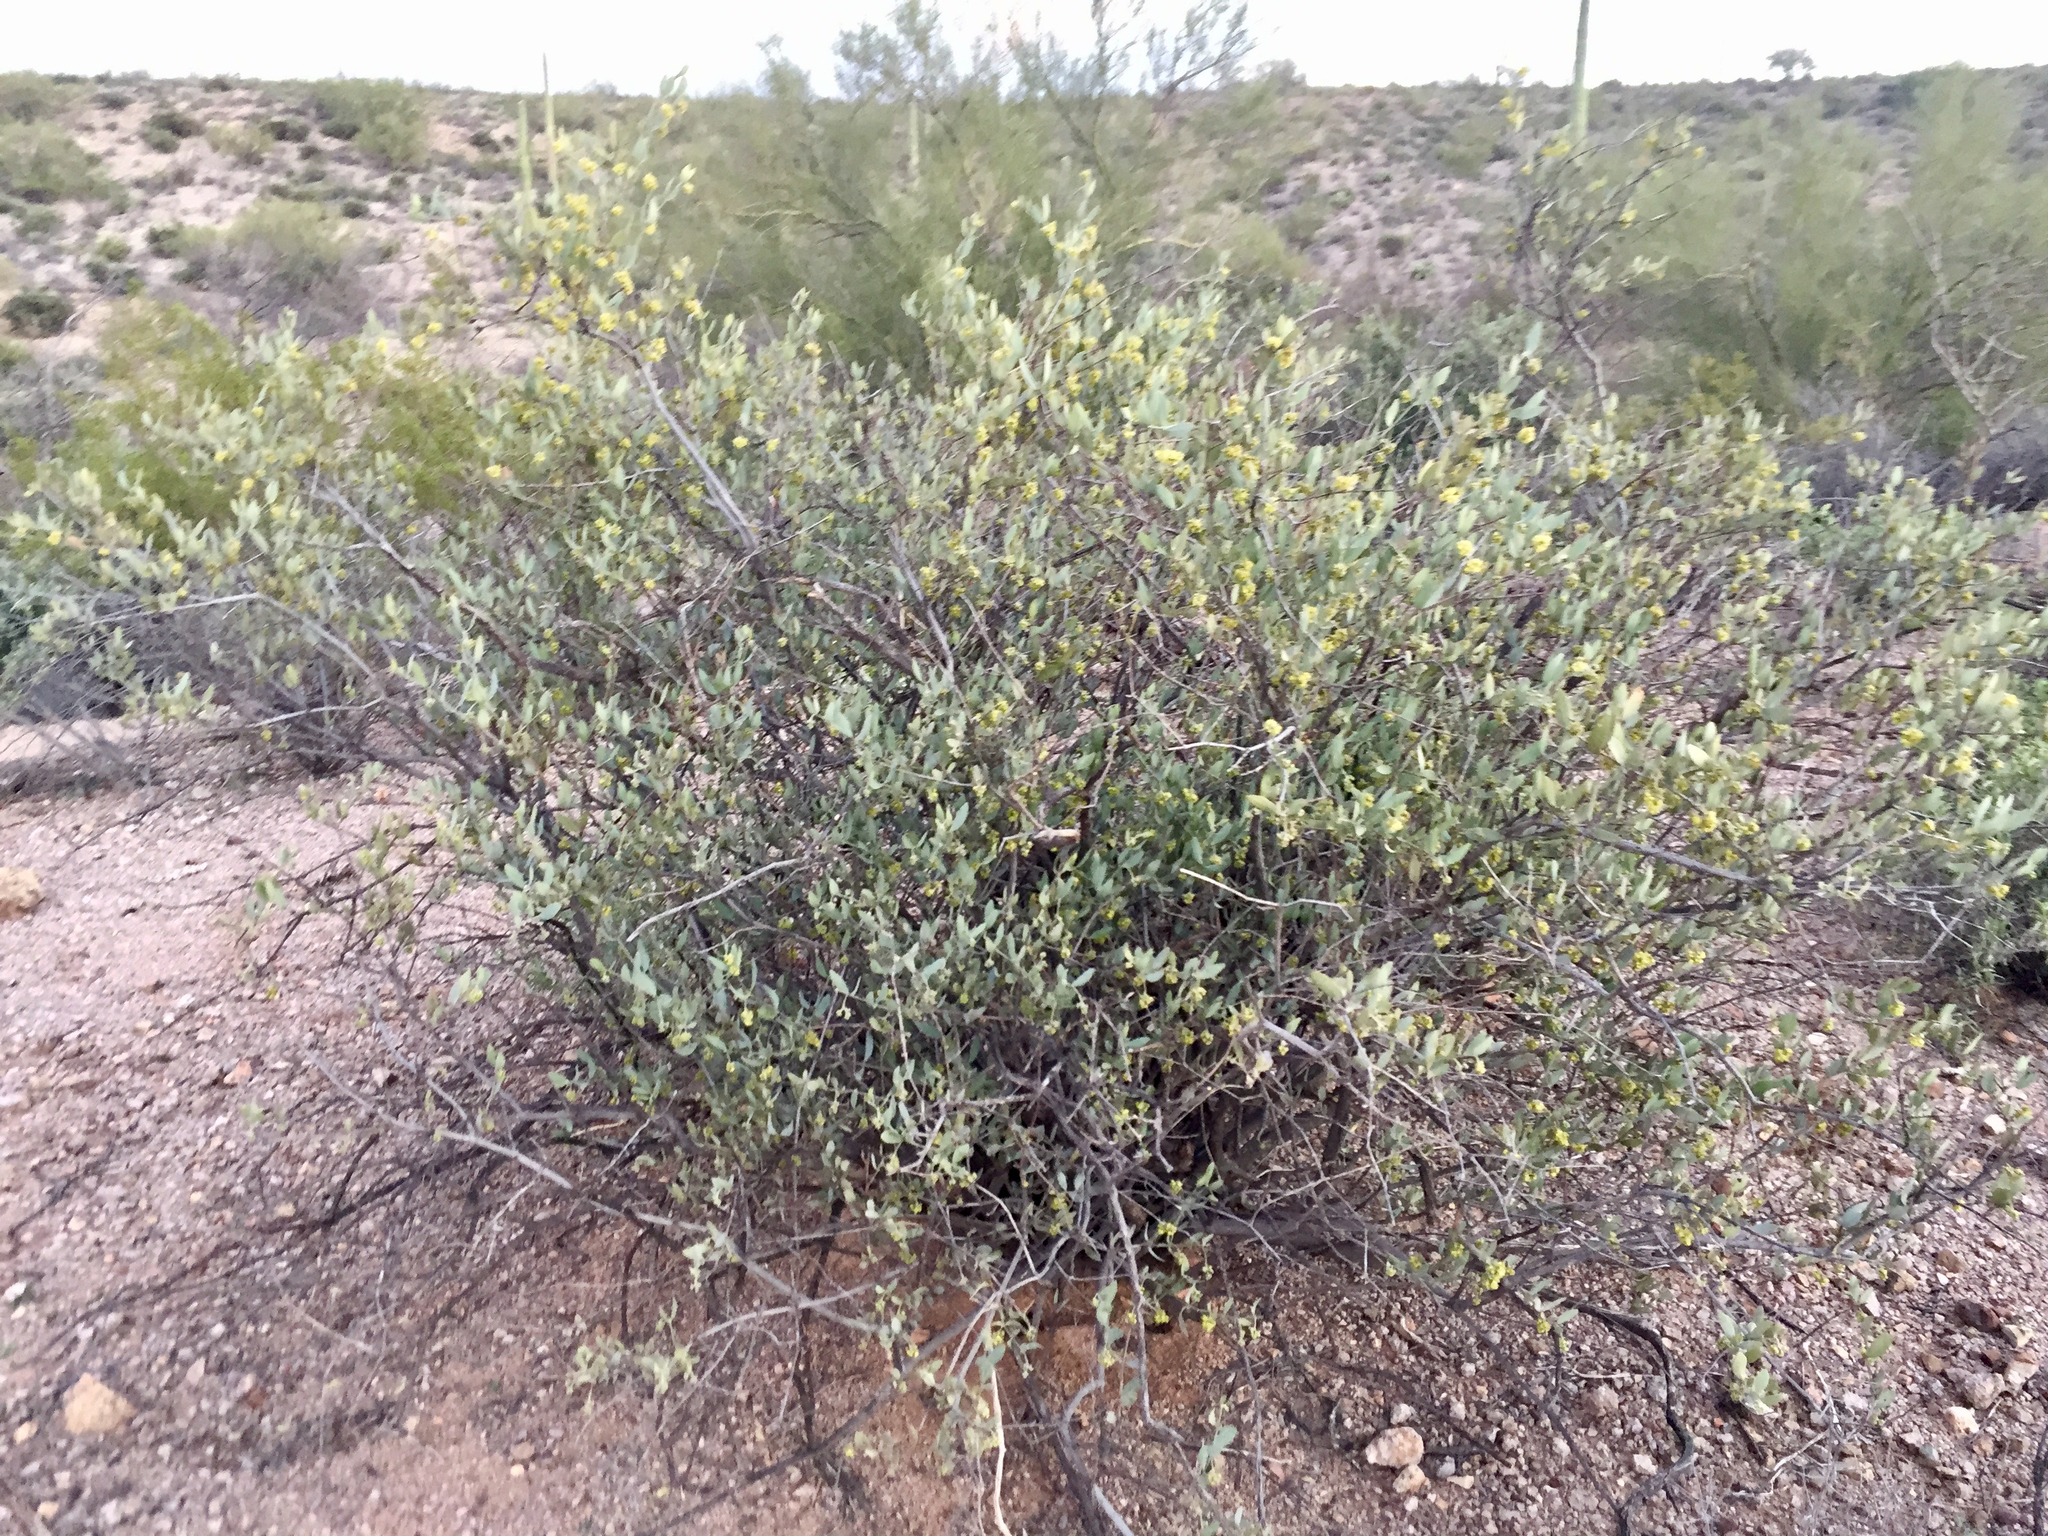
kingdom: Plantae
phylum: Tracheophyta
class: Magnoliopsida
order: Caryophyllales
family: Simmondsiaceae
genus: Simmondsia
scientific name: Simmondsia chinensis
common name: Jojoba
